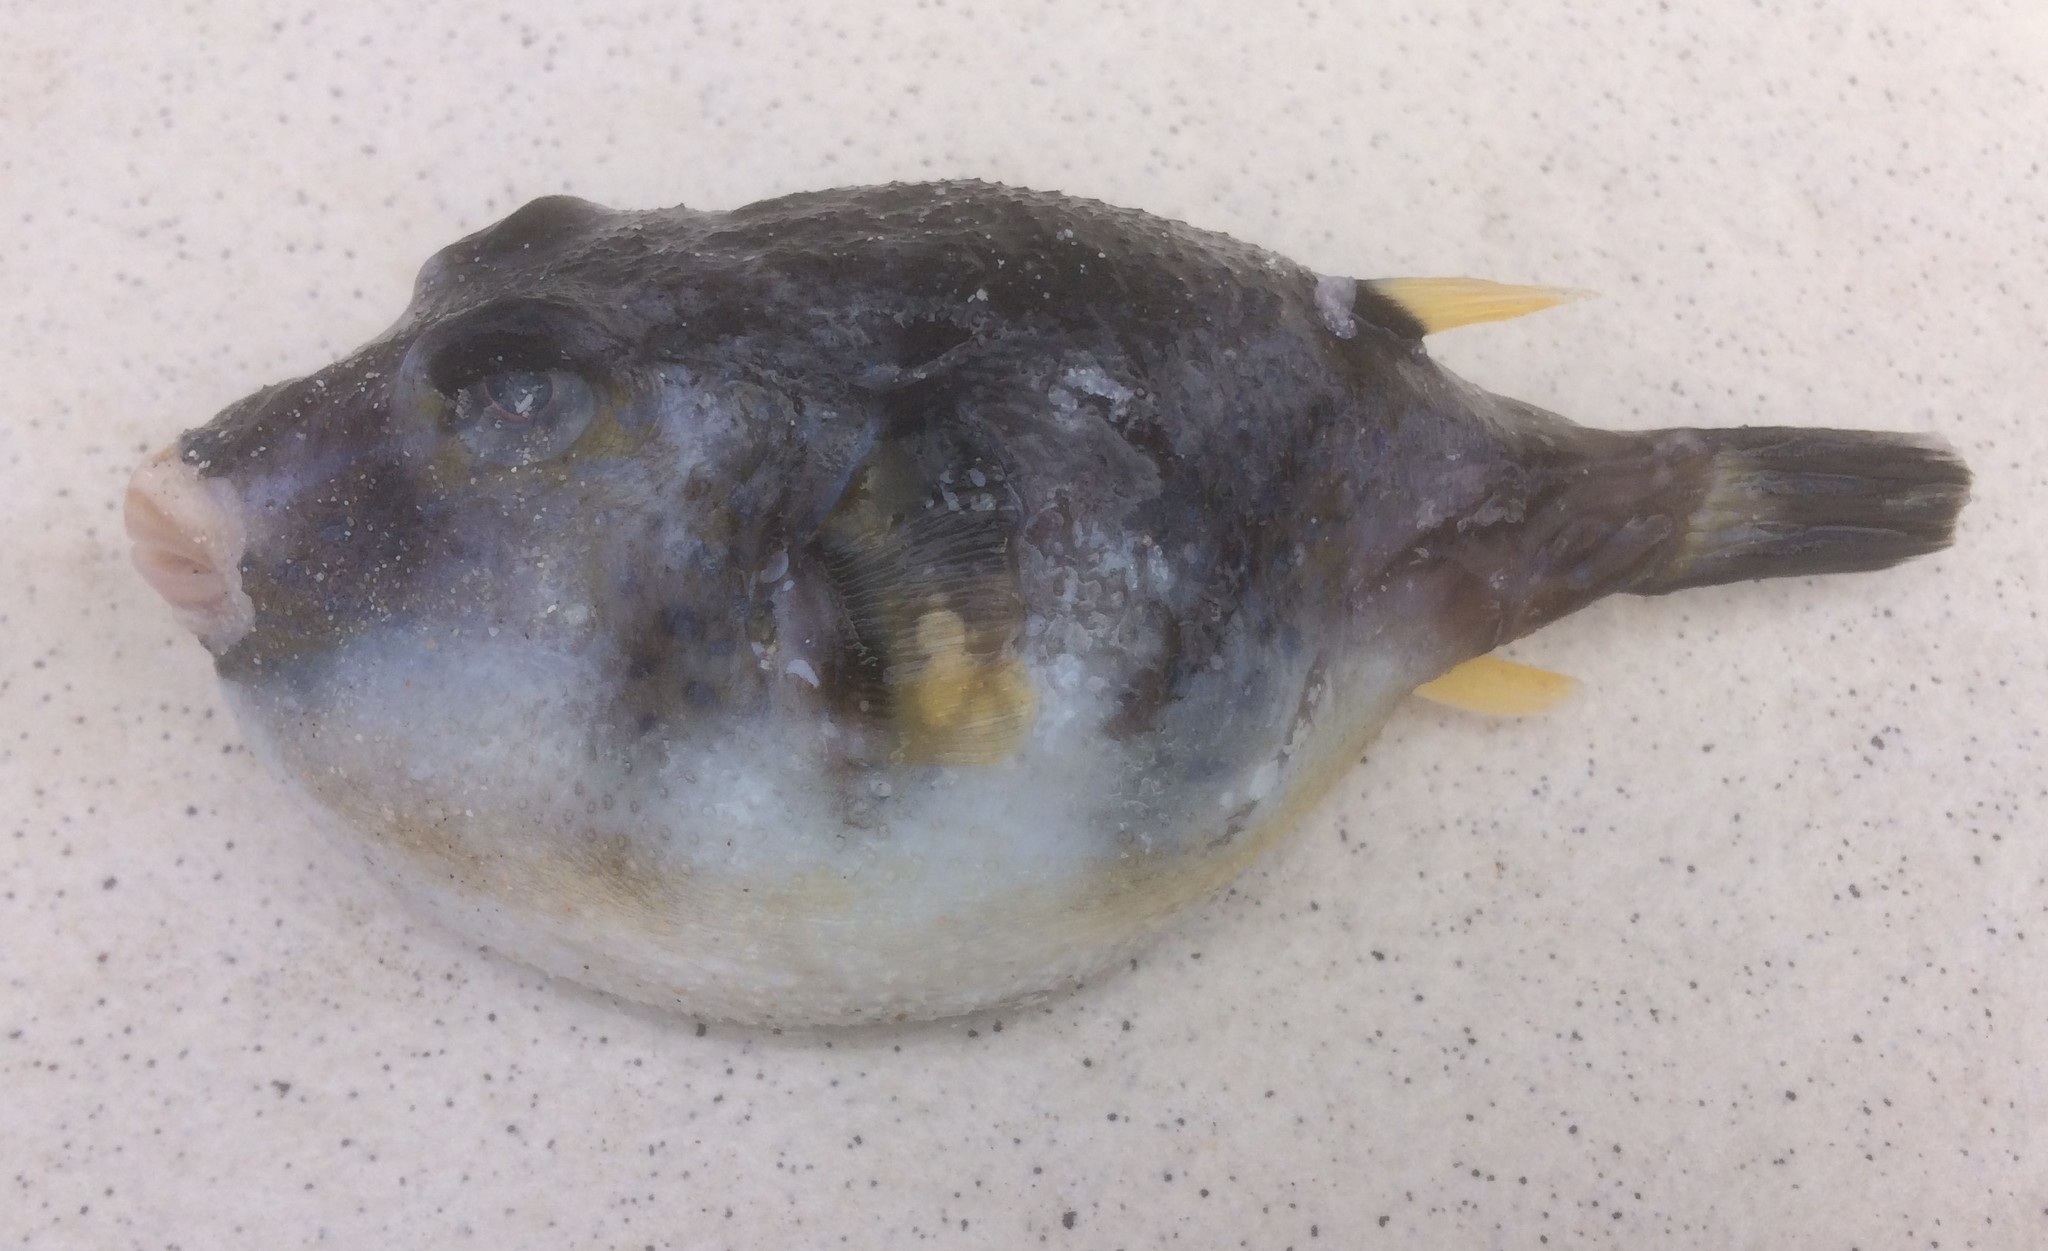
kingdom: Animalia
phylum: Chordata
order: Tetraodontiformes
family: Tetraodontidae
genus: Omegophora
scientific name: Omegophora cyanopunctata
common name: Bluespotted toadfish
